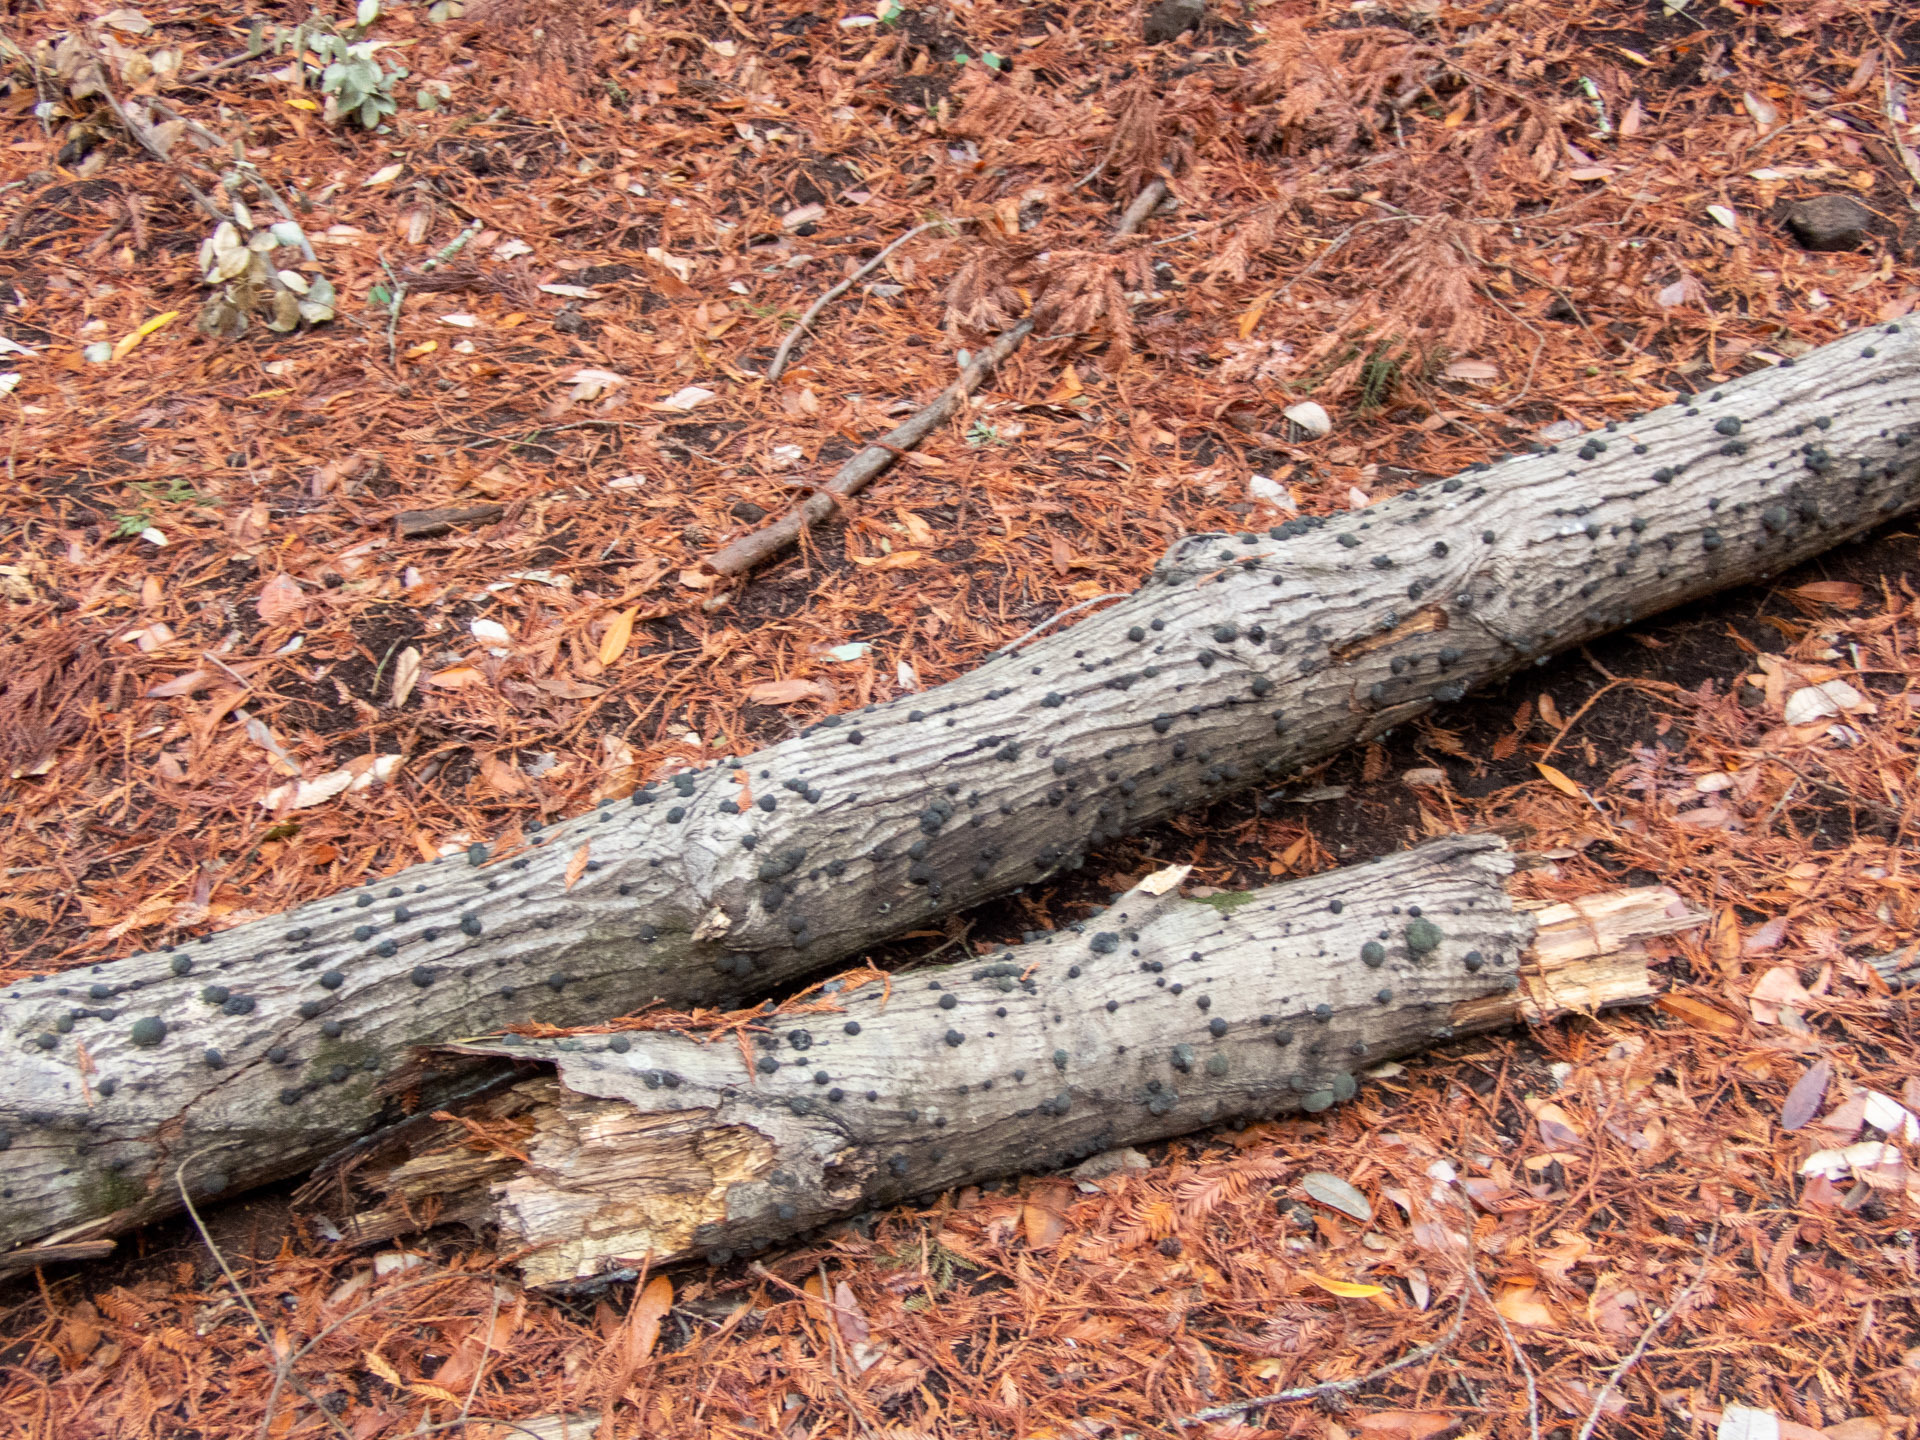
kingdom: Fungi
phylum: Ascomycota
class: Sordariomycetes
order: Xylariales
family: Hypoxylaceae
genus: Annulohypoxylon
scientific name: Annulohypoxylon thouarsianum
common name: Cramp balls
